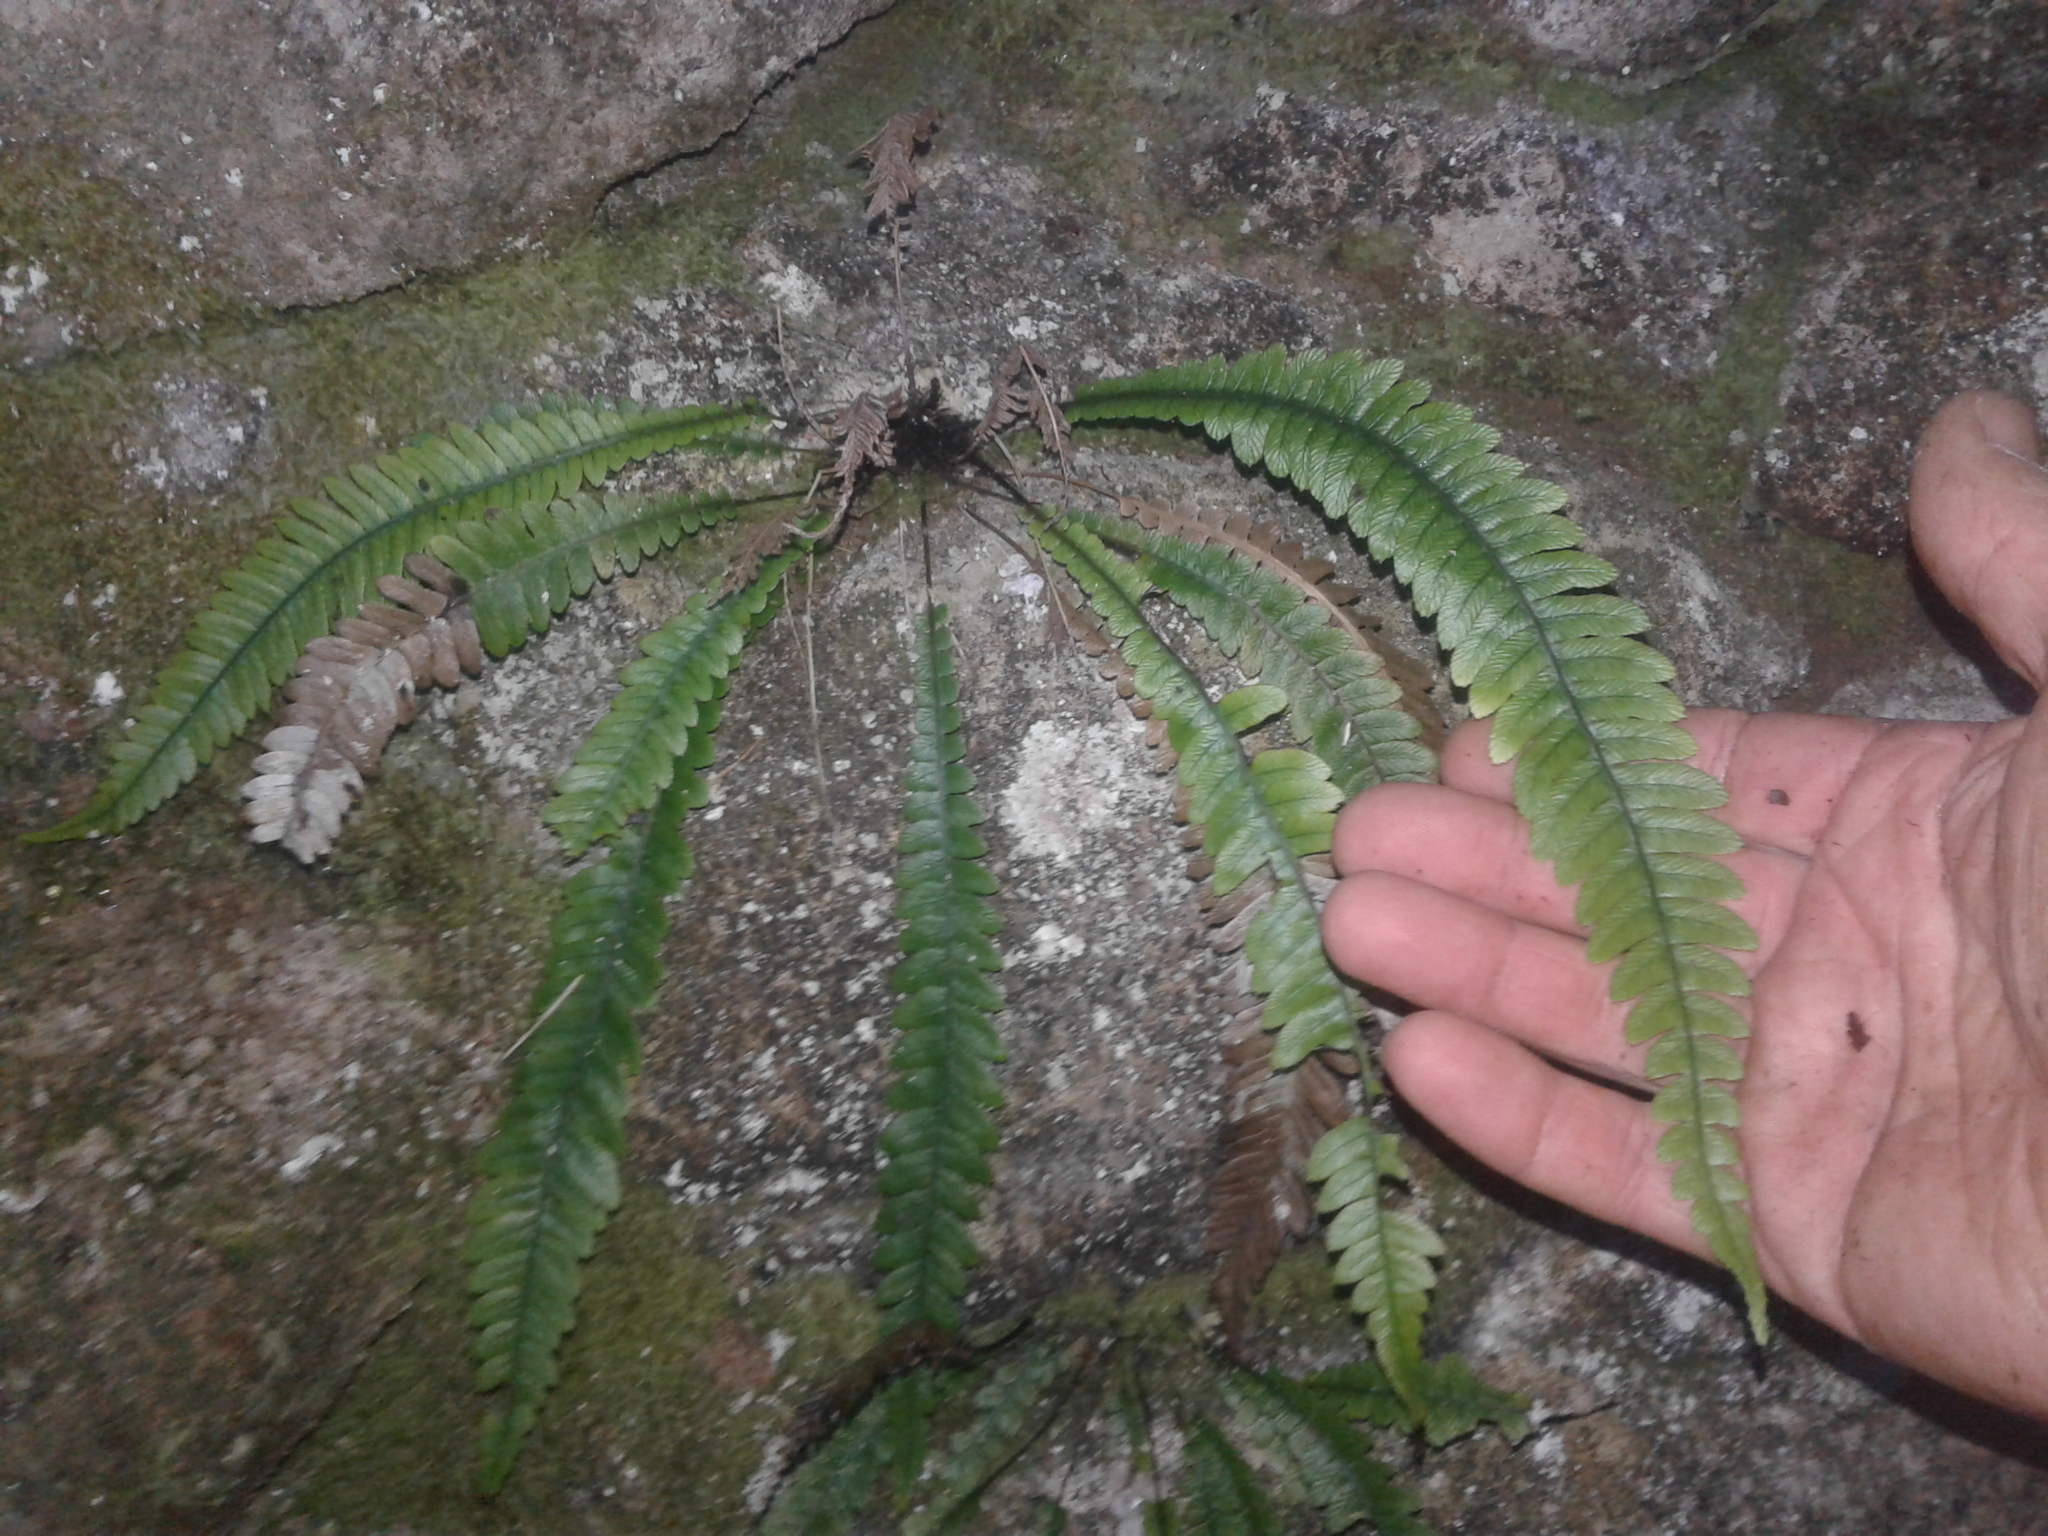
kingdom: Plantae
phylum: Tracheophyta
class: Polypodiopsida
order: Polypodiales
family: Blechnaceae
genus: Austroblechnum
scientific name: Austroblechnum lanceolatum
